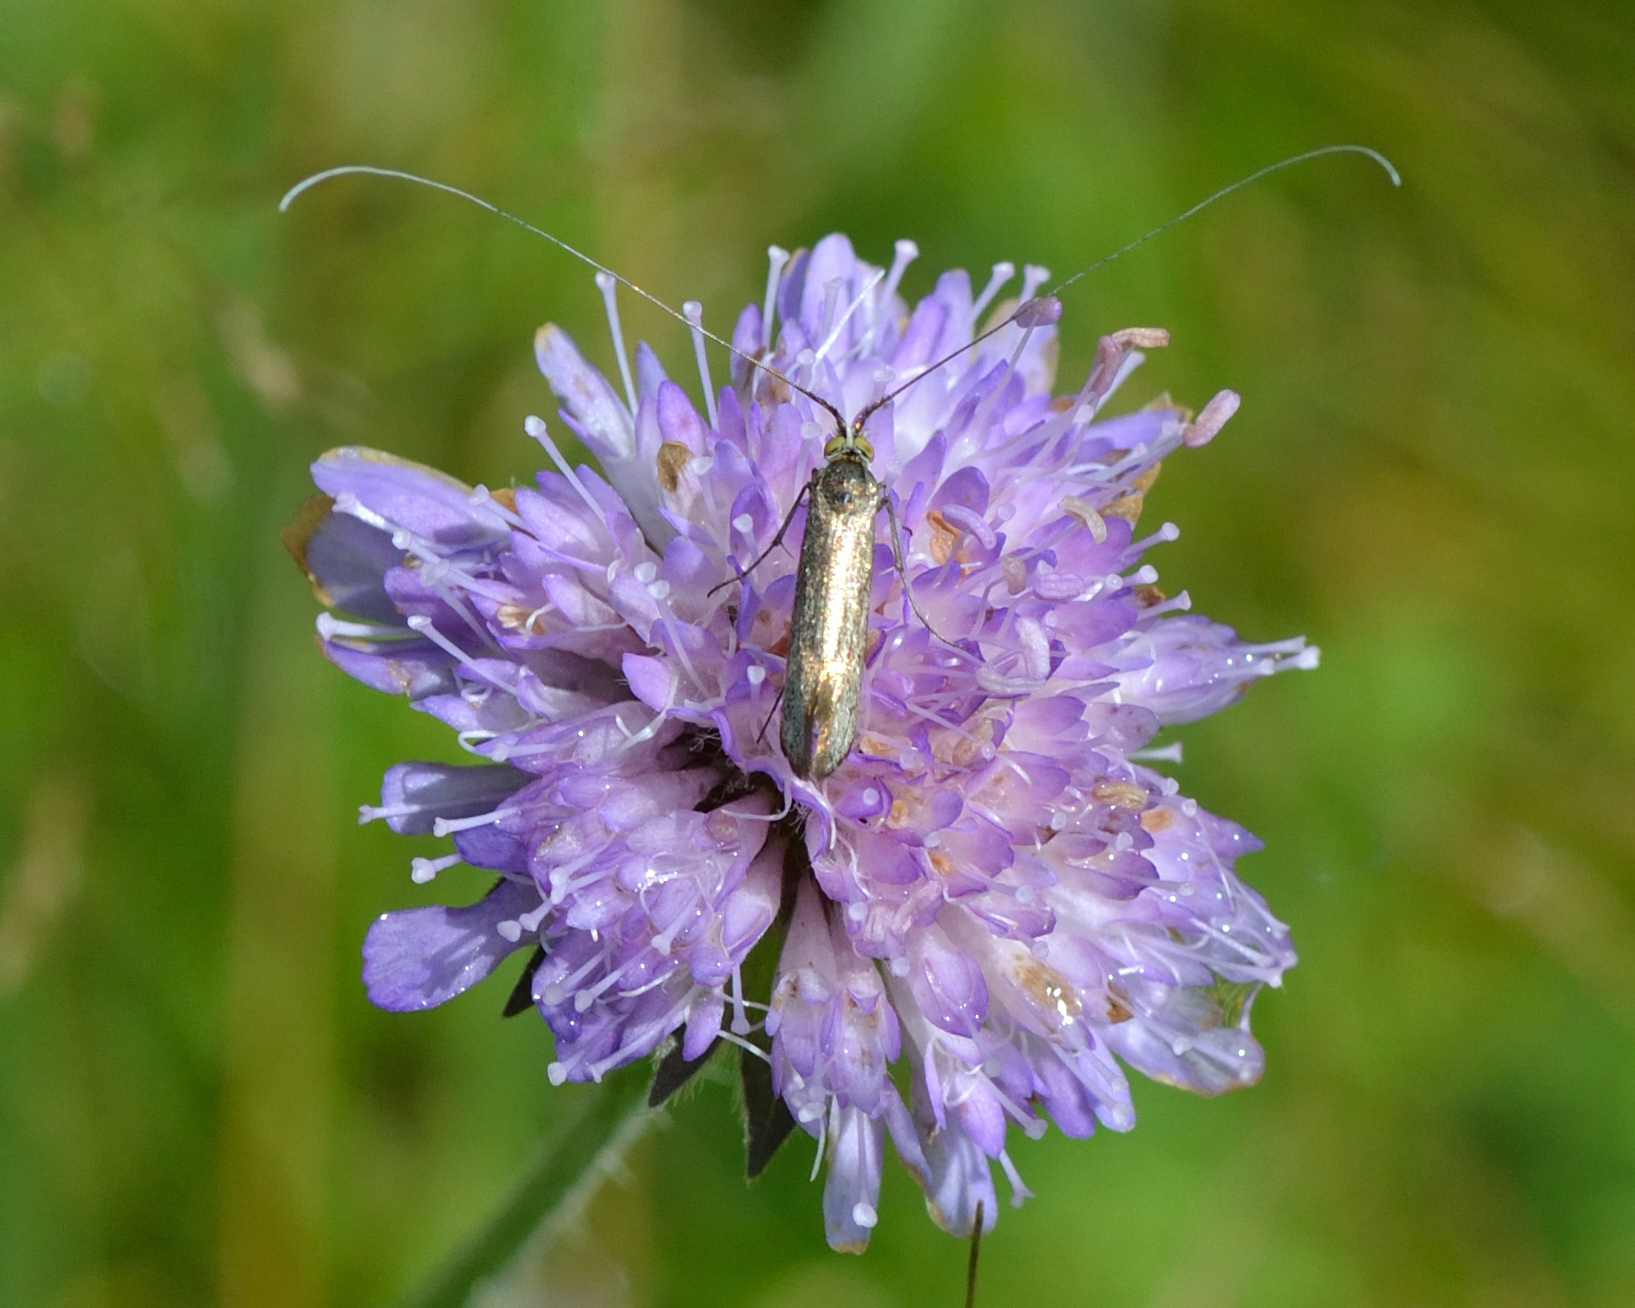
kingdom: Animalia
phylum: Arthropoda
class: Insecta
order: Lepidoptera
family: Adelidae
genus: Nemophora
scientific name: Nemophora metallica
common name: Brassy long-horn
